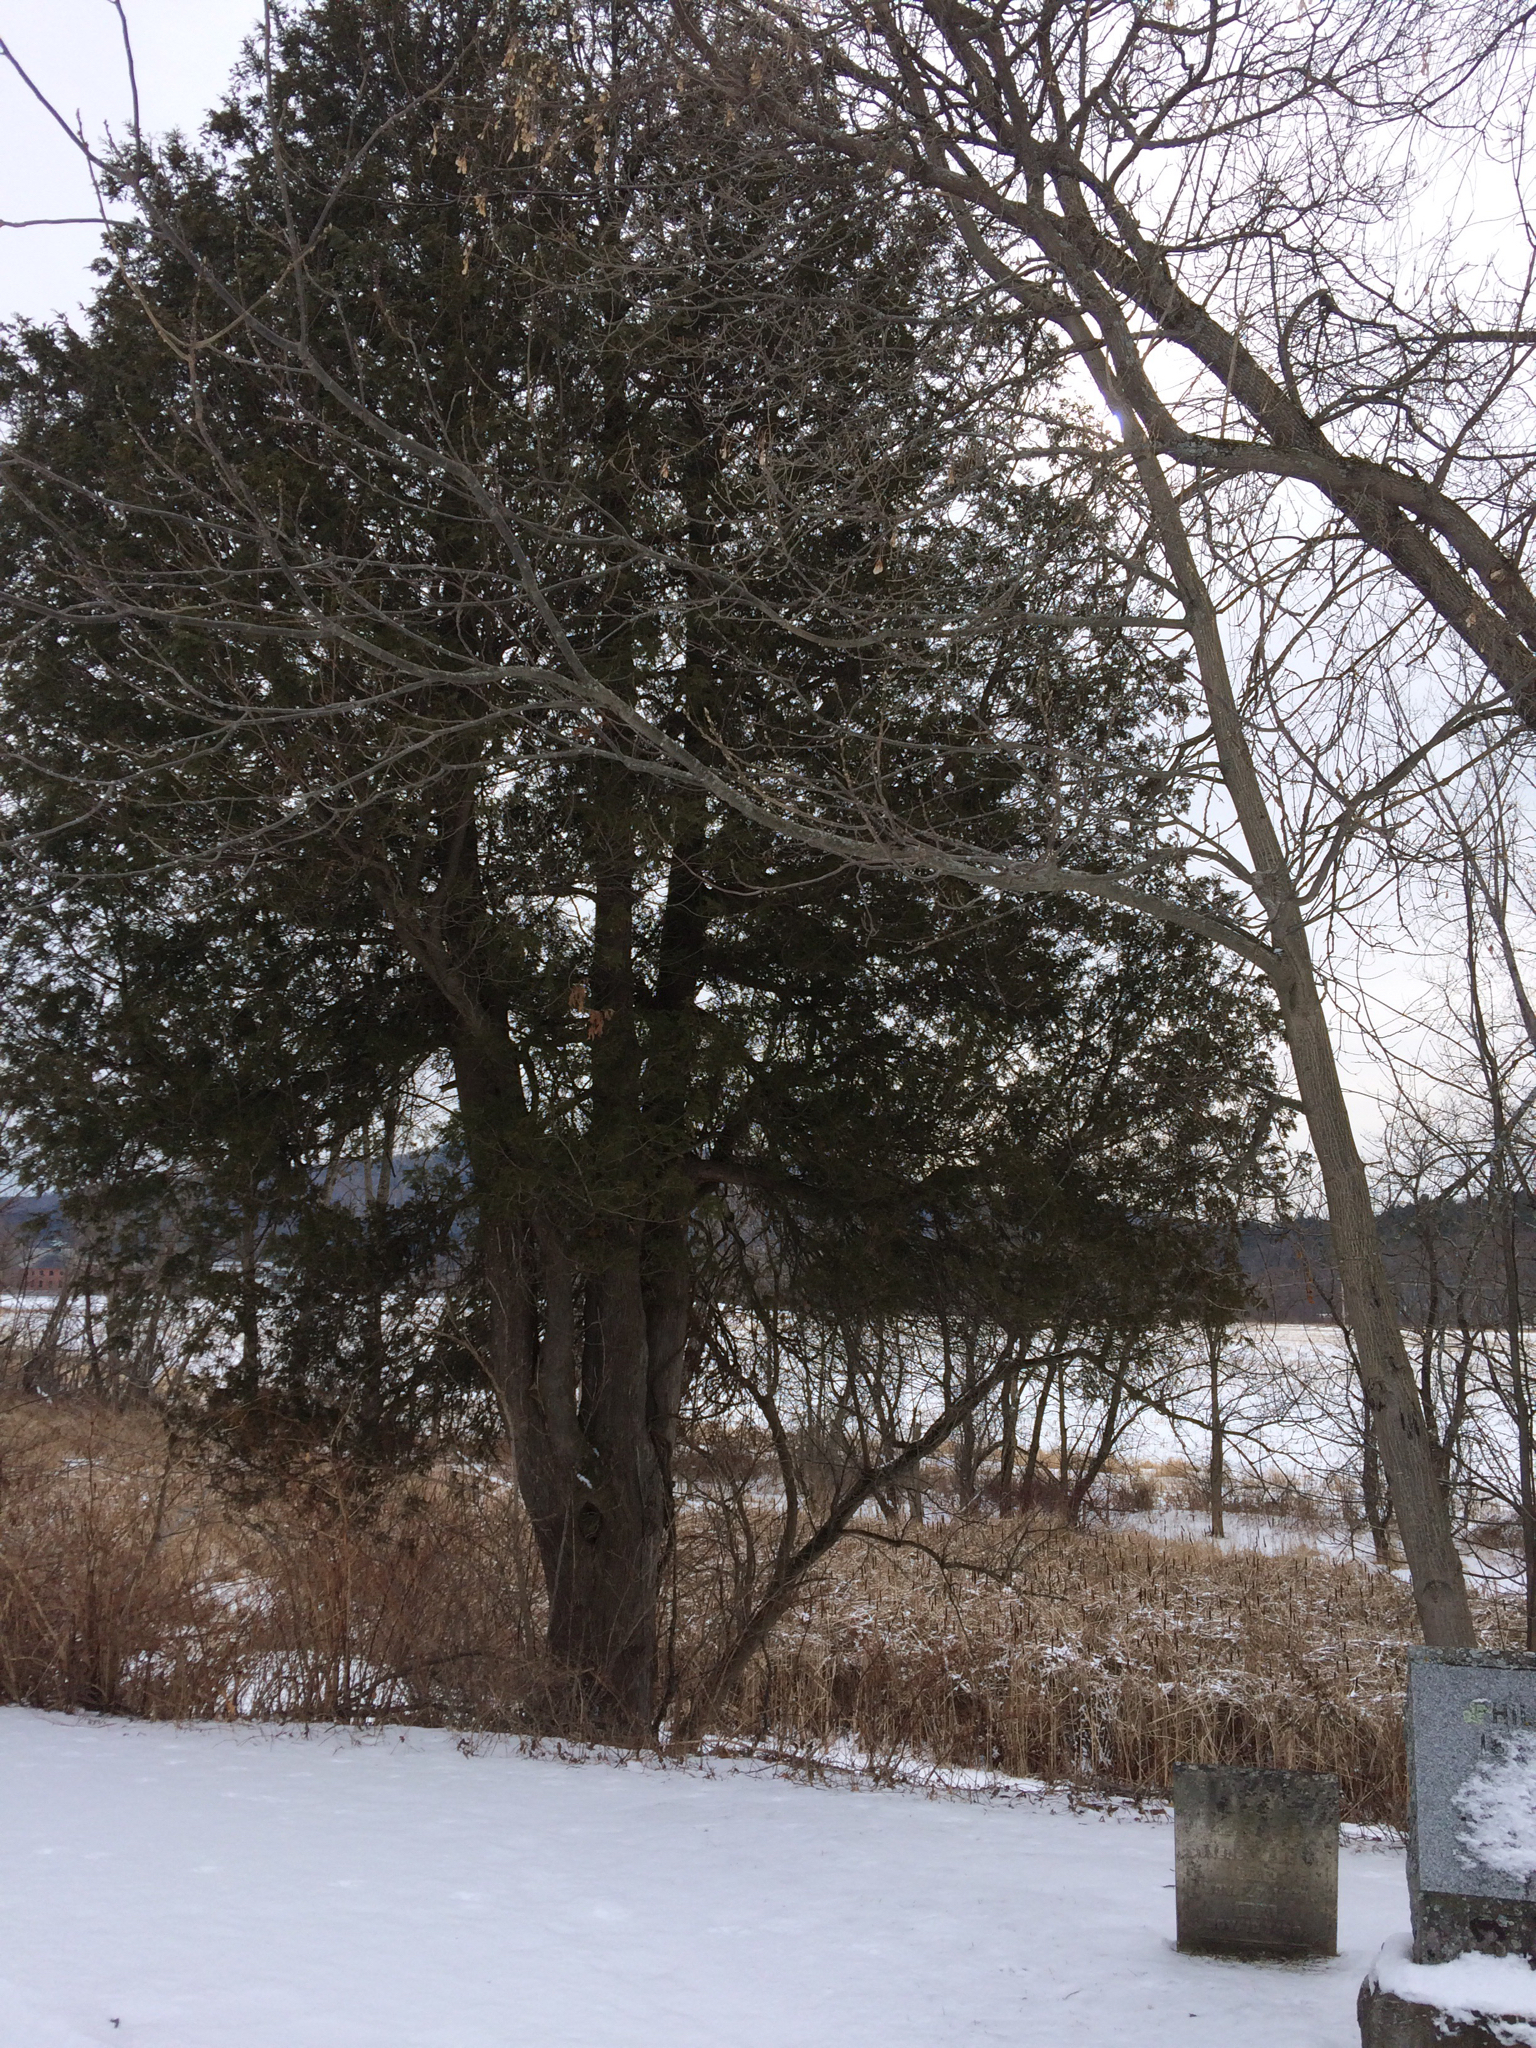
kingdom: Plantae
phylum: Tracheophyta
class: Pinopsida
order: Pinales
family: Cupressaceae
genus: Thuja
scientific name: Thuja occidentalis
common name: Northern white-cedar
